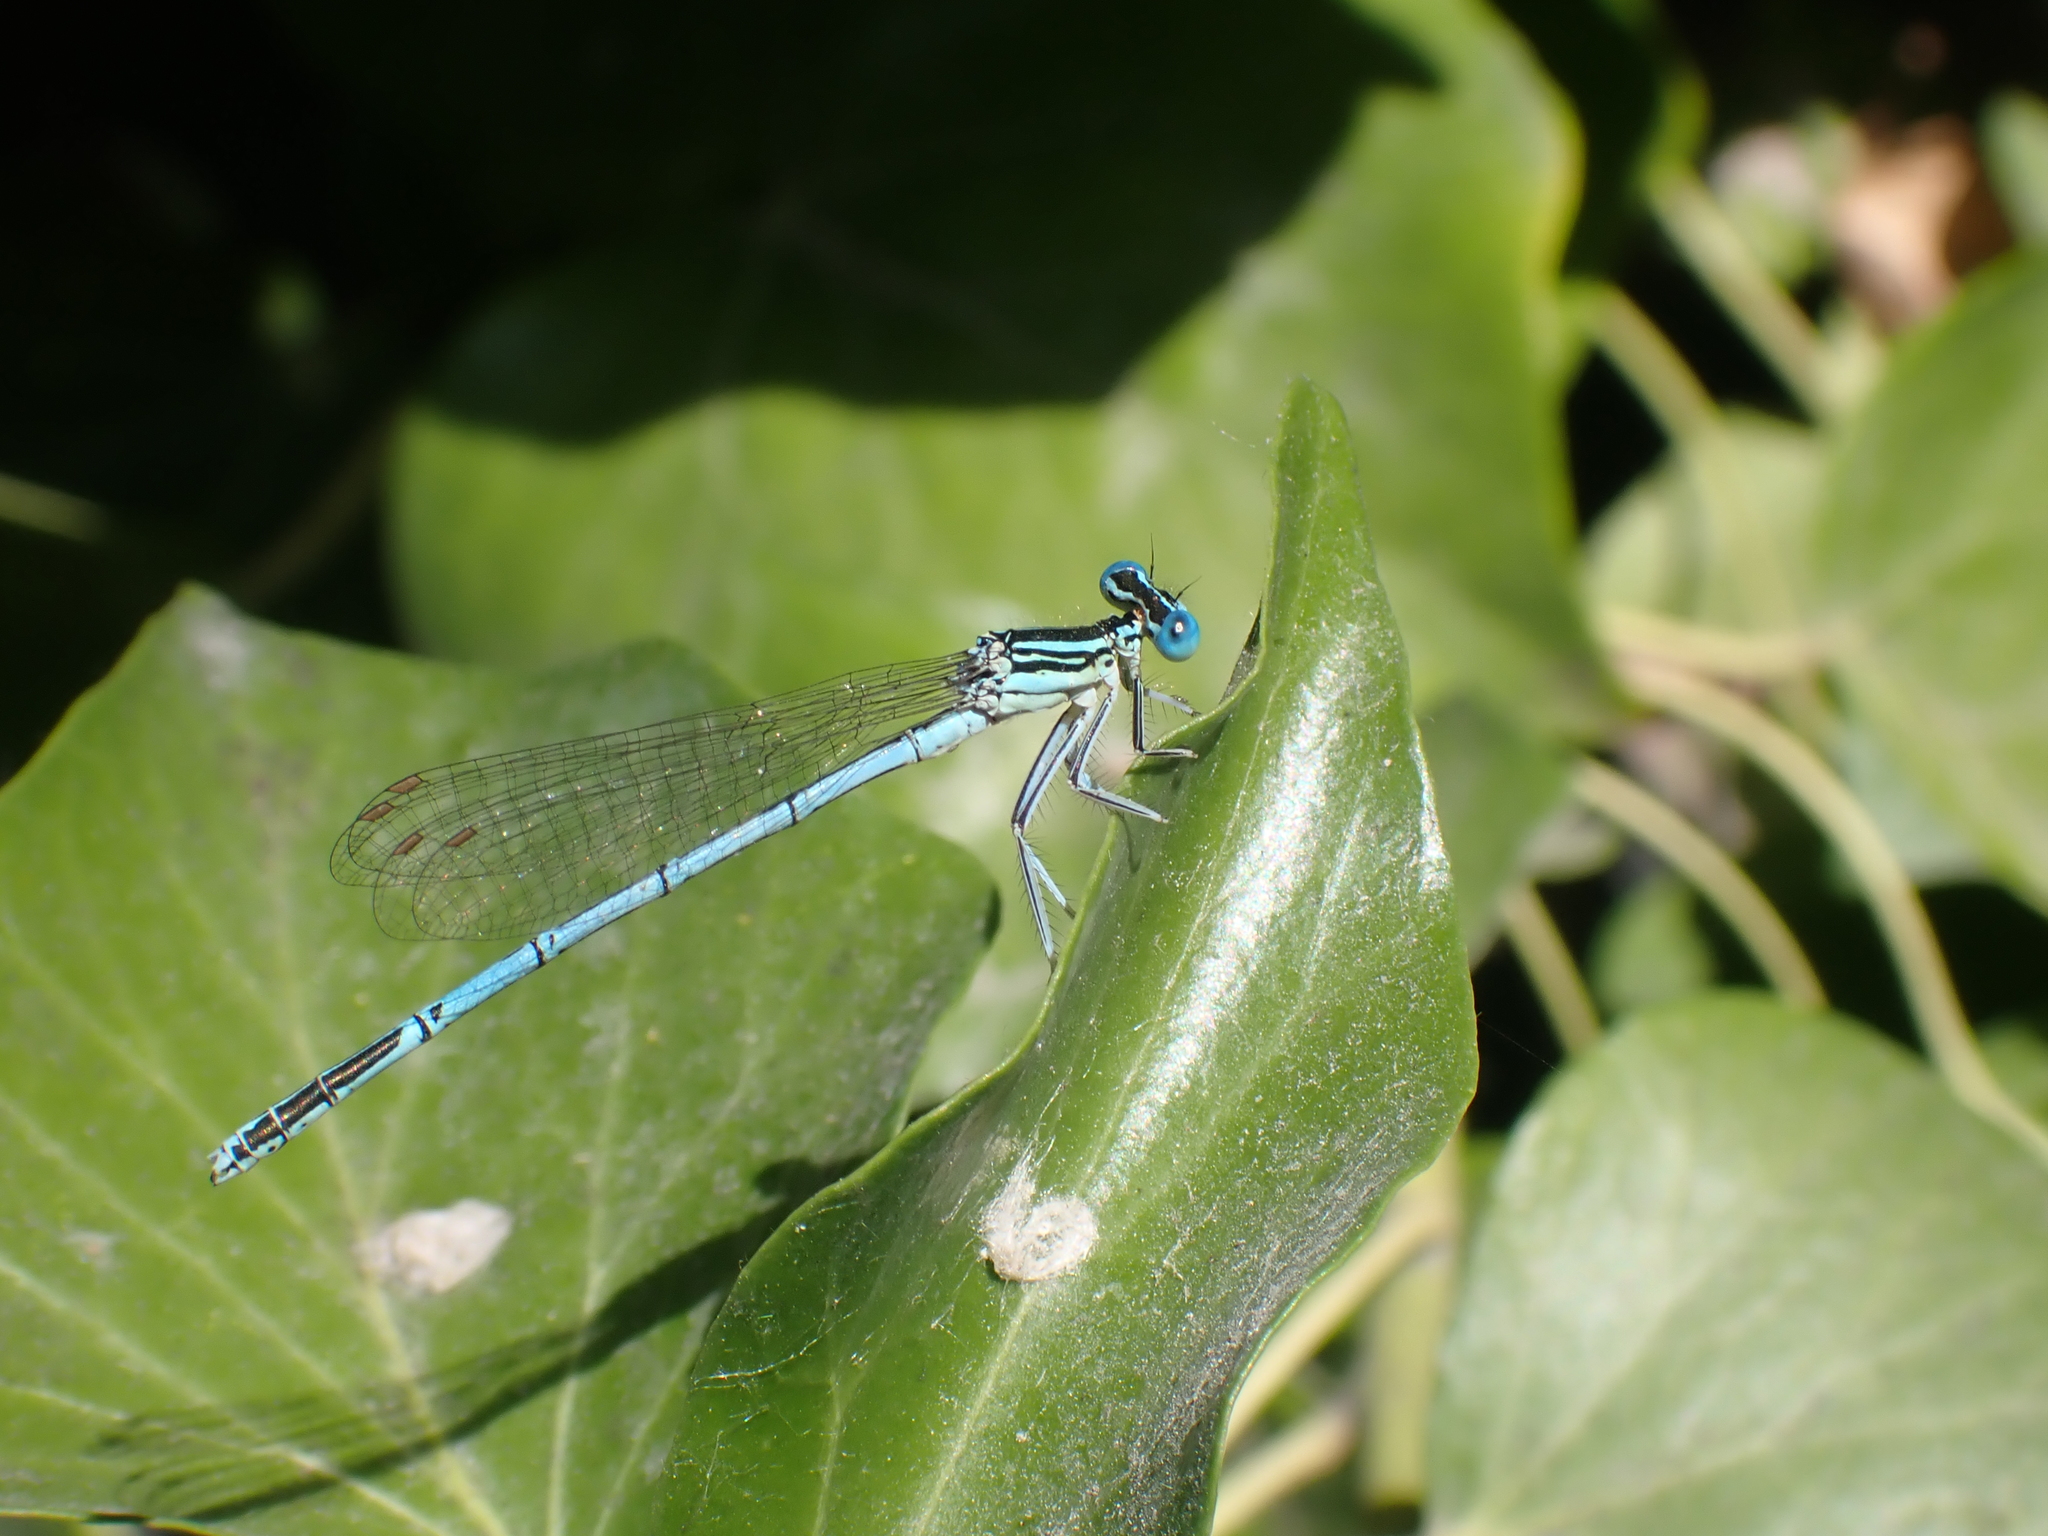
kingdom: Animalia
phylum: Arthropoda
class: Insecta
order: Odonata
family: Platycnemididae
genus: Platycnemis
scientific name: Platycnemis pennipes
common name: White-legged damselfly
